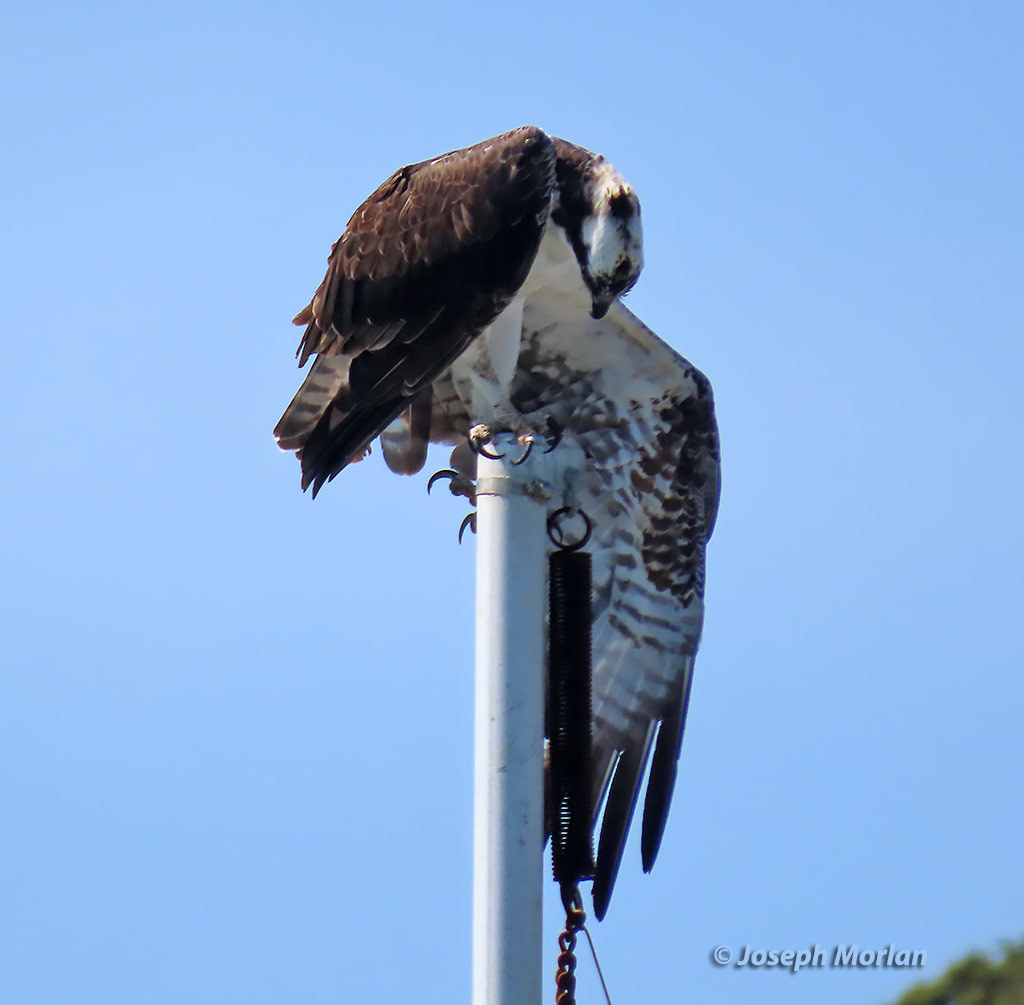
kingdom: Animalia
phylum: Chordata
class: Aves
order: Accipitriformes
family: Pandionidae
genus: Pandion
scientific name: Pandion haliaetus
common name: Osprey
